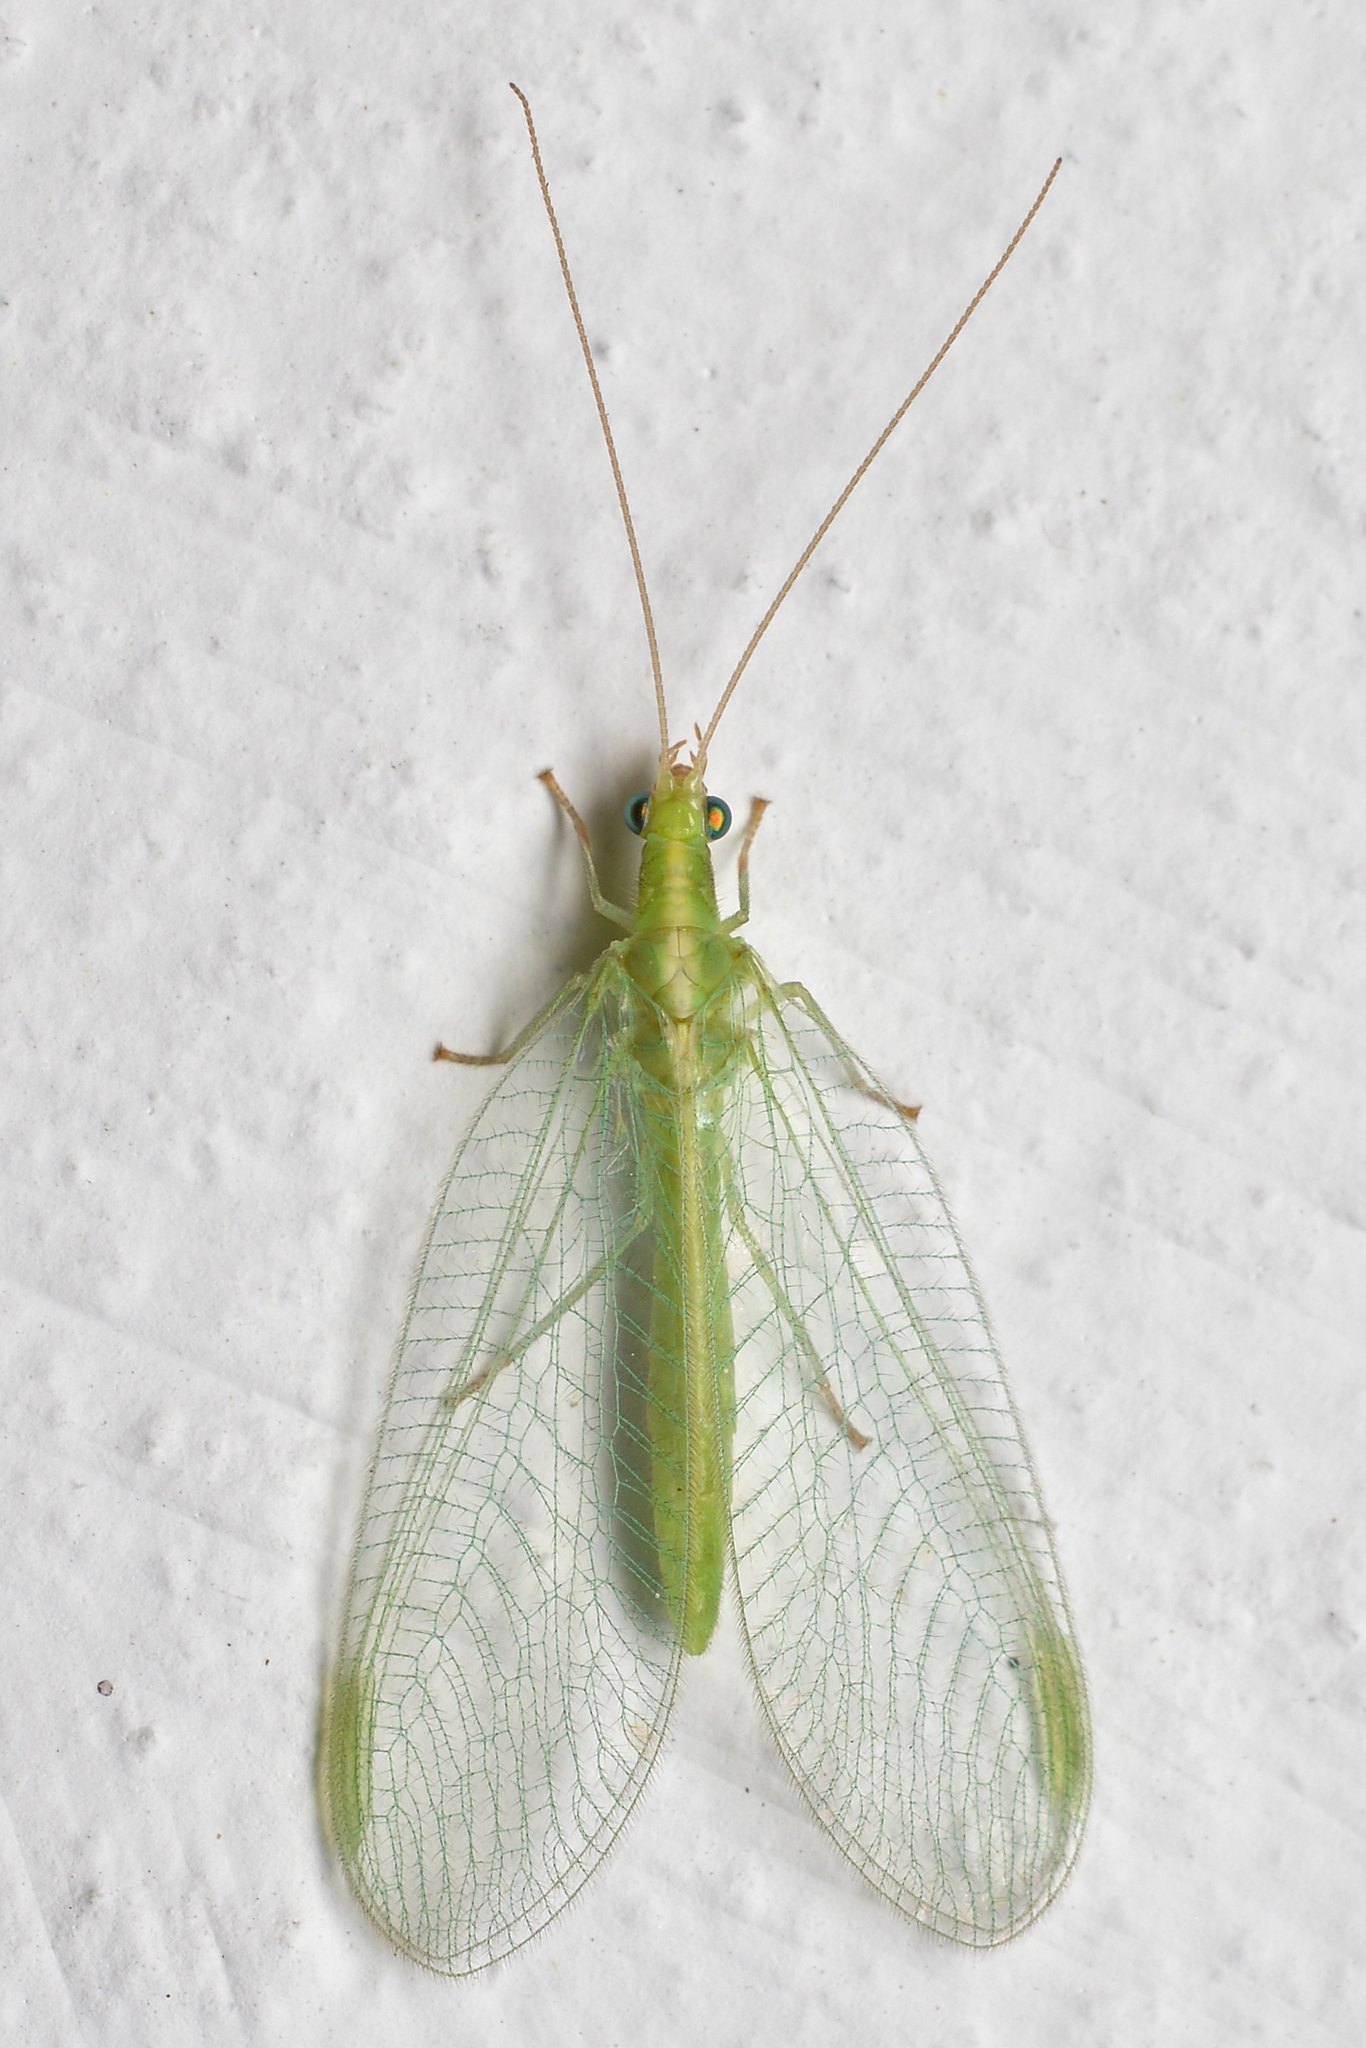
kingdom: Animalia
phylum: Arthropoda
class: Insecta
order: Neuroptera
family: Chrysopidae
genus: Chrysoperla
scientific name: Chrysoperla
